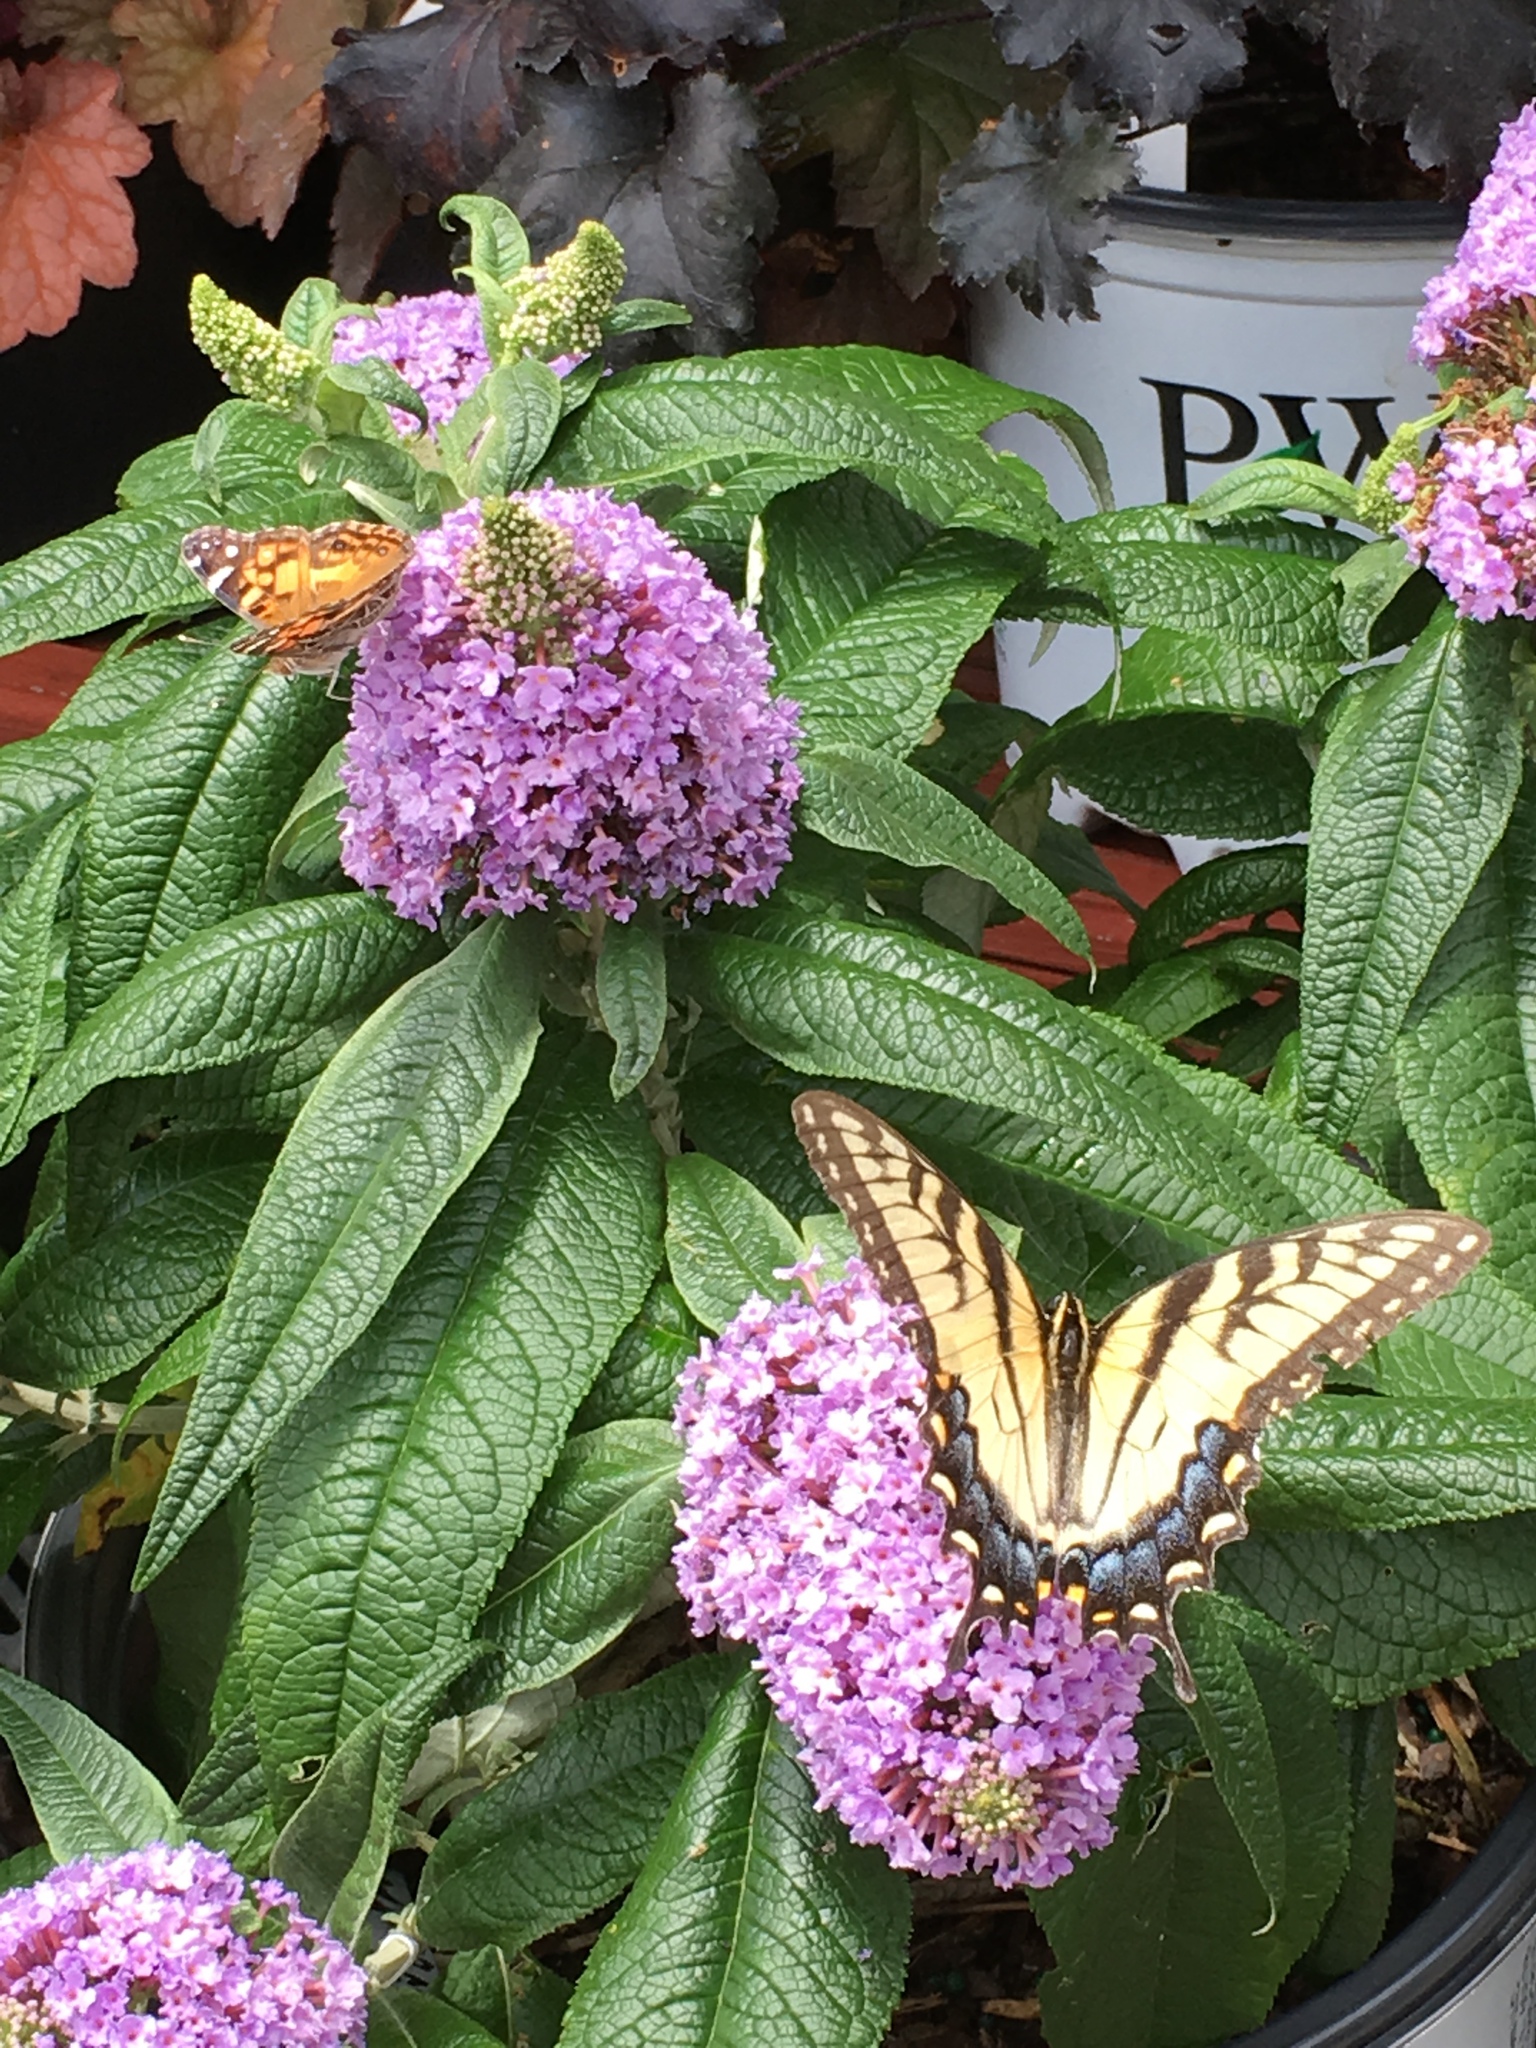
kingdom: Animalia
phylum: Arthropoda
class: Insecta
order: Lepidoptera
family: Papilionidae
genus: Papilio
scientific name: Papilio glaucus
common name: Tiger swallowtail
